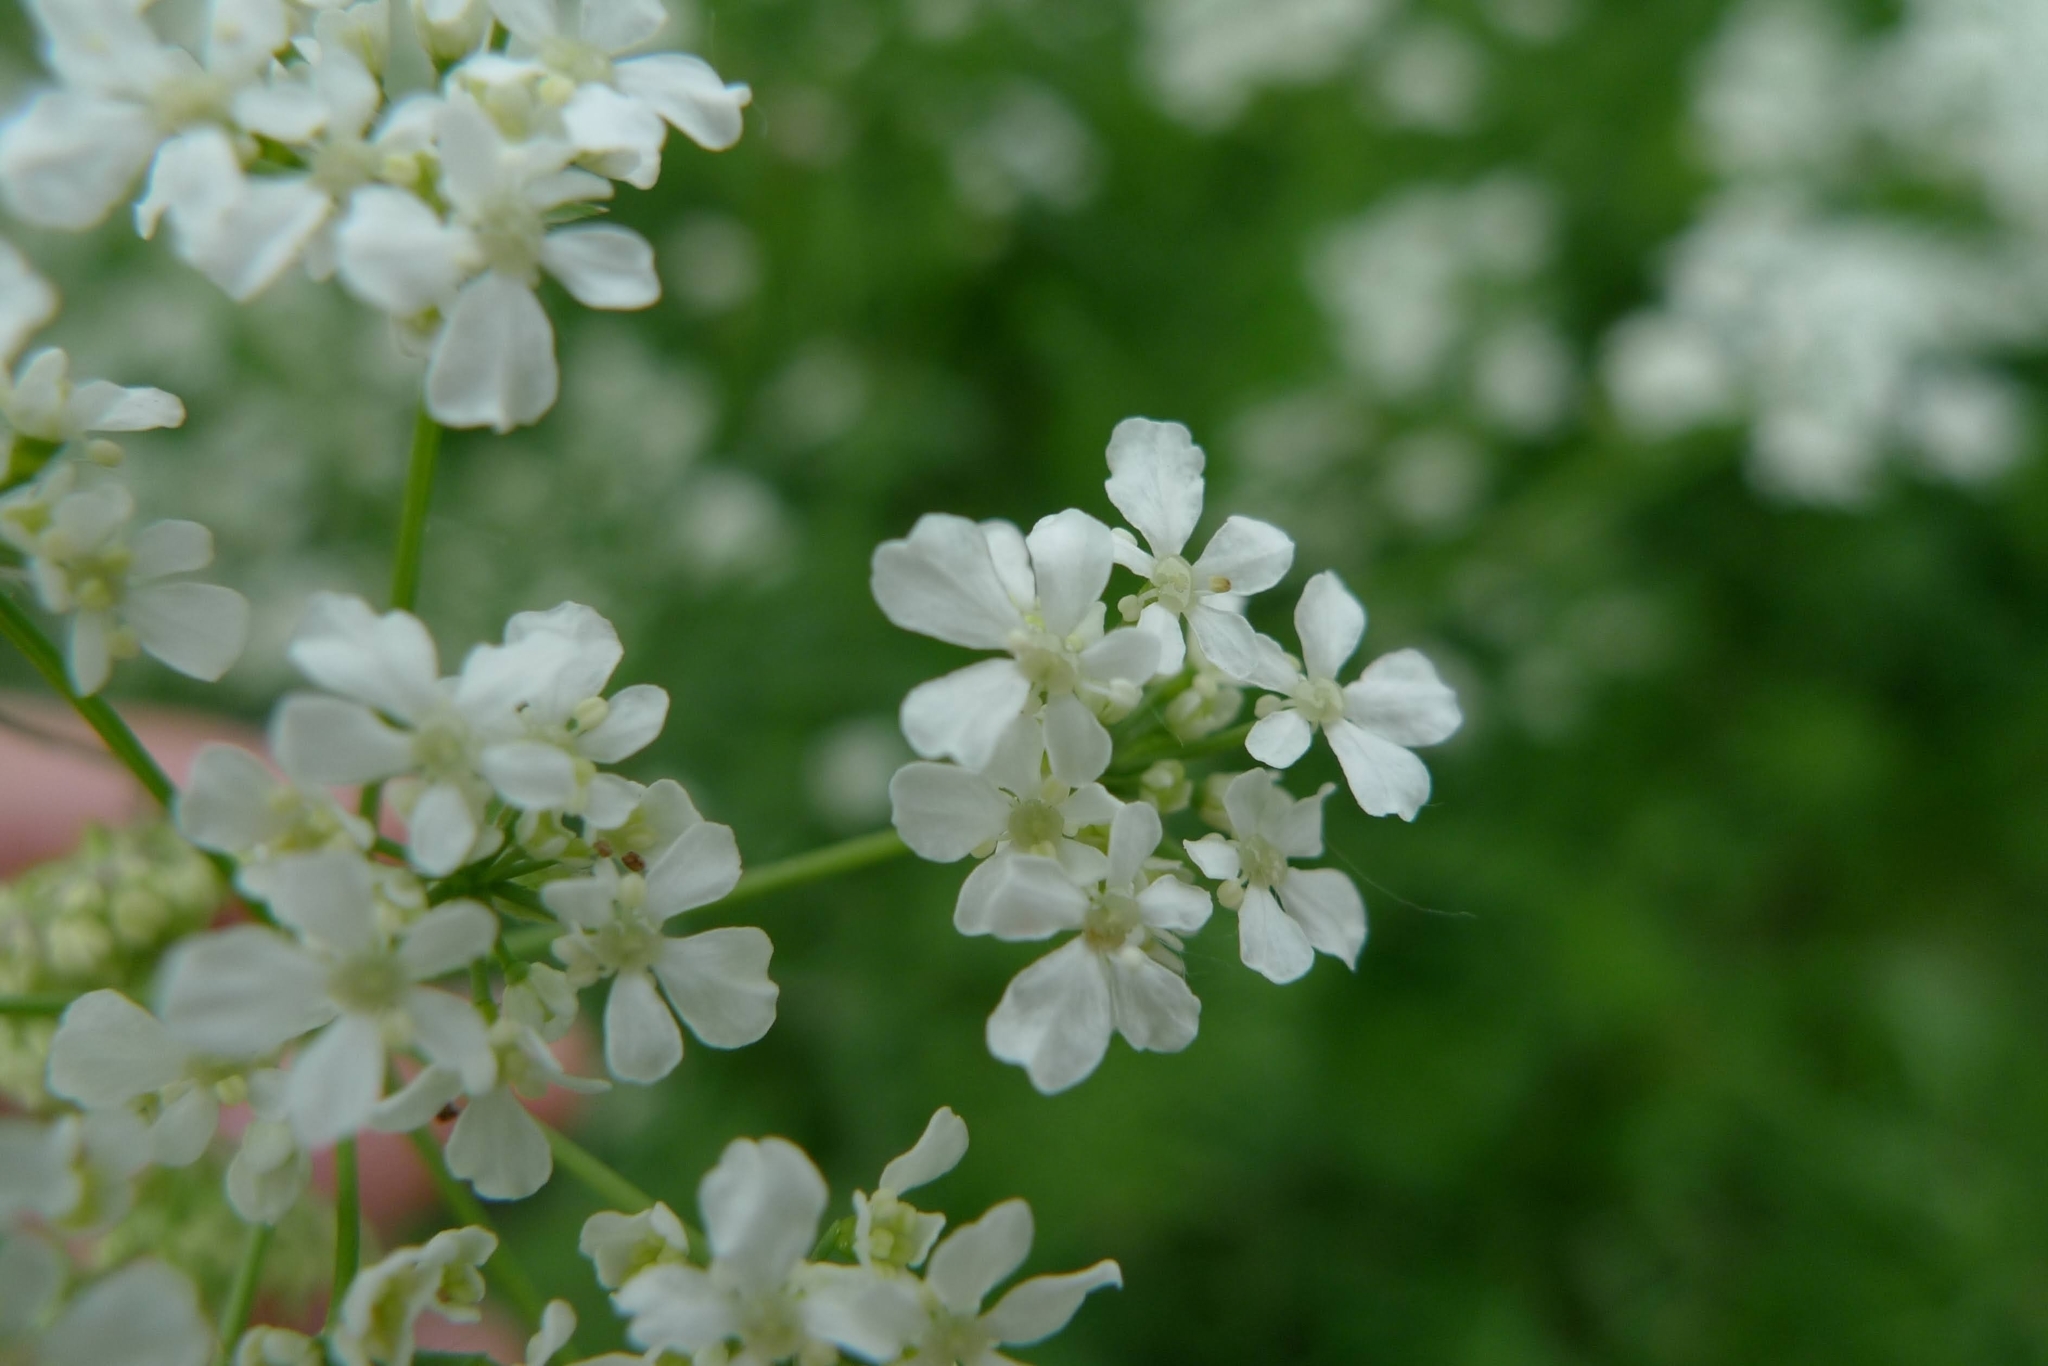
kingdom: Plantae
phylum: Tracheophyta
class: Magnoliopsida
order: Apiales
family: Apiaceae
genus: Anthriscus
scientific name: Anthriscus sylvestris
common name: Cow parsley
